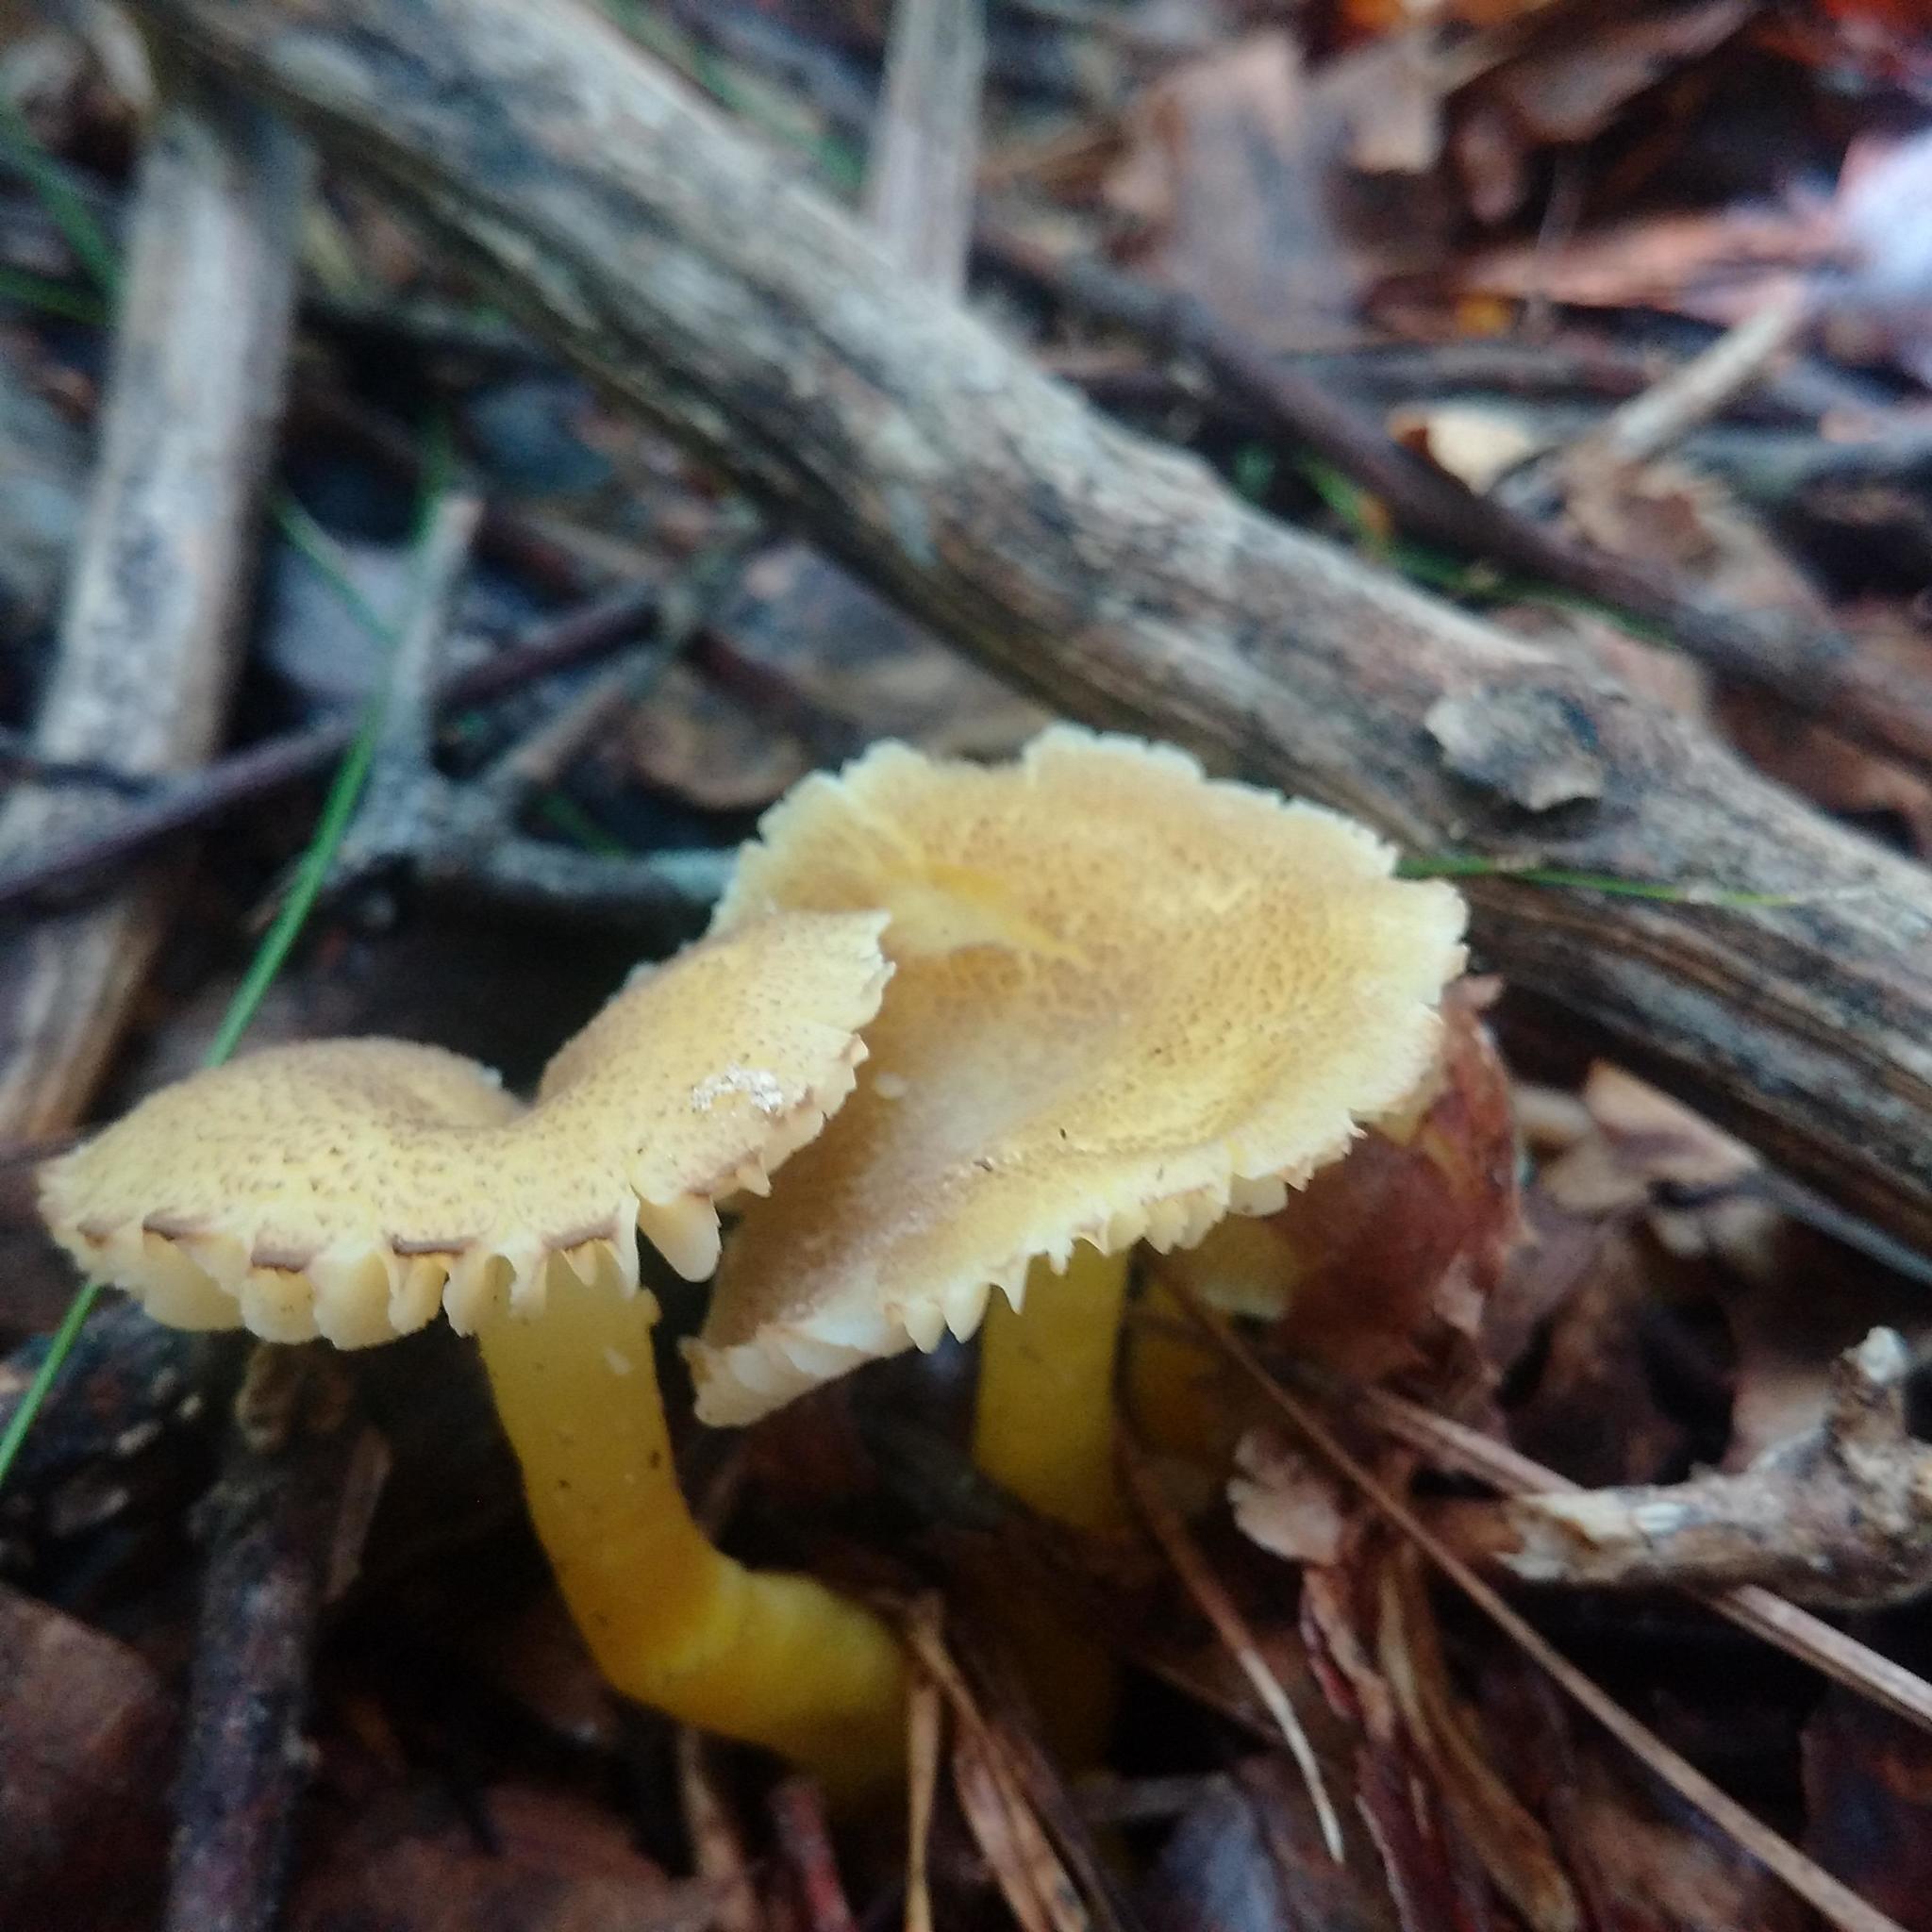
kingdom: Fungi
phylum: Basidiomycota
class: Agaricomycetes
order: Agaricales
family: Hygrophoraceae
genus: Hygrocybe
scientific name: Hygrocybe caespitosa
